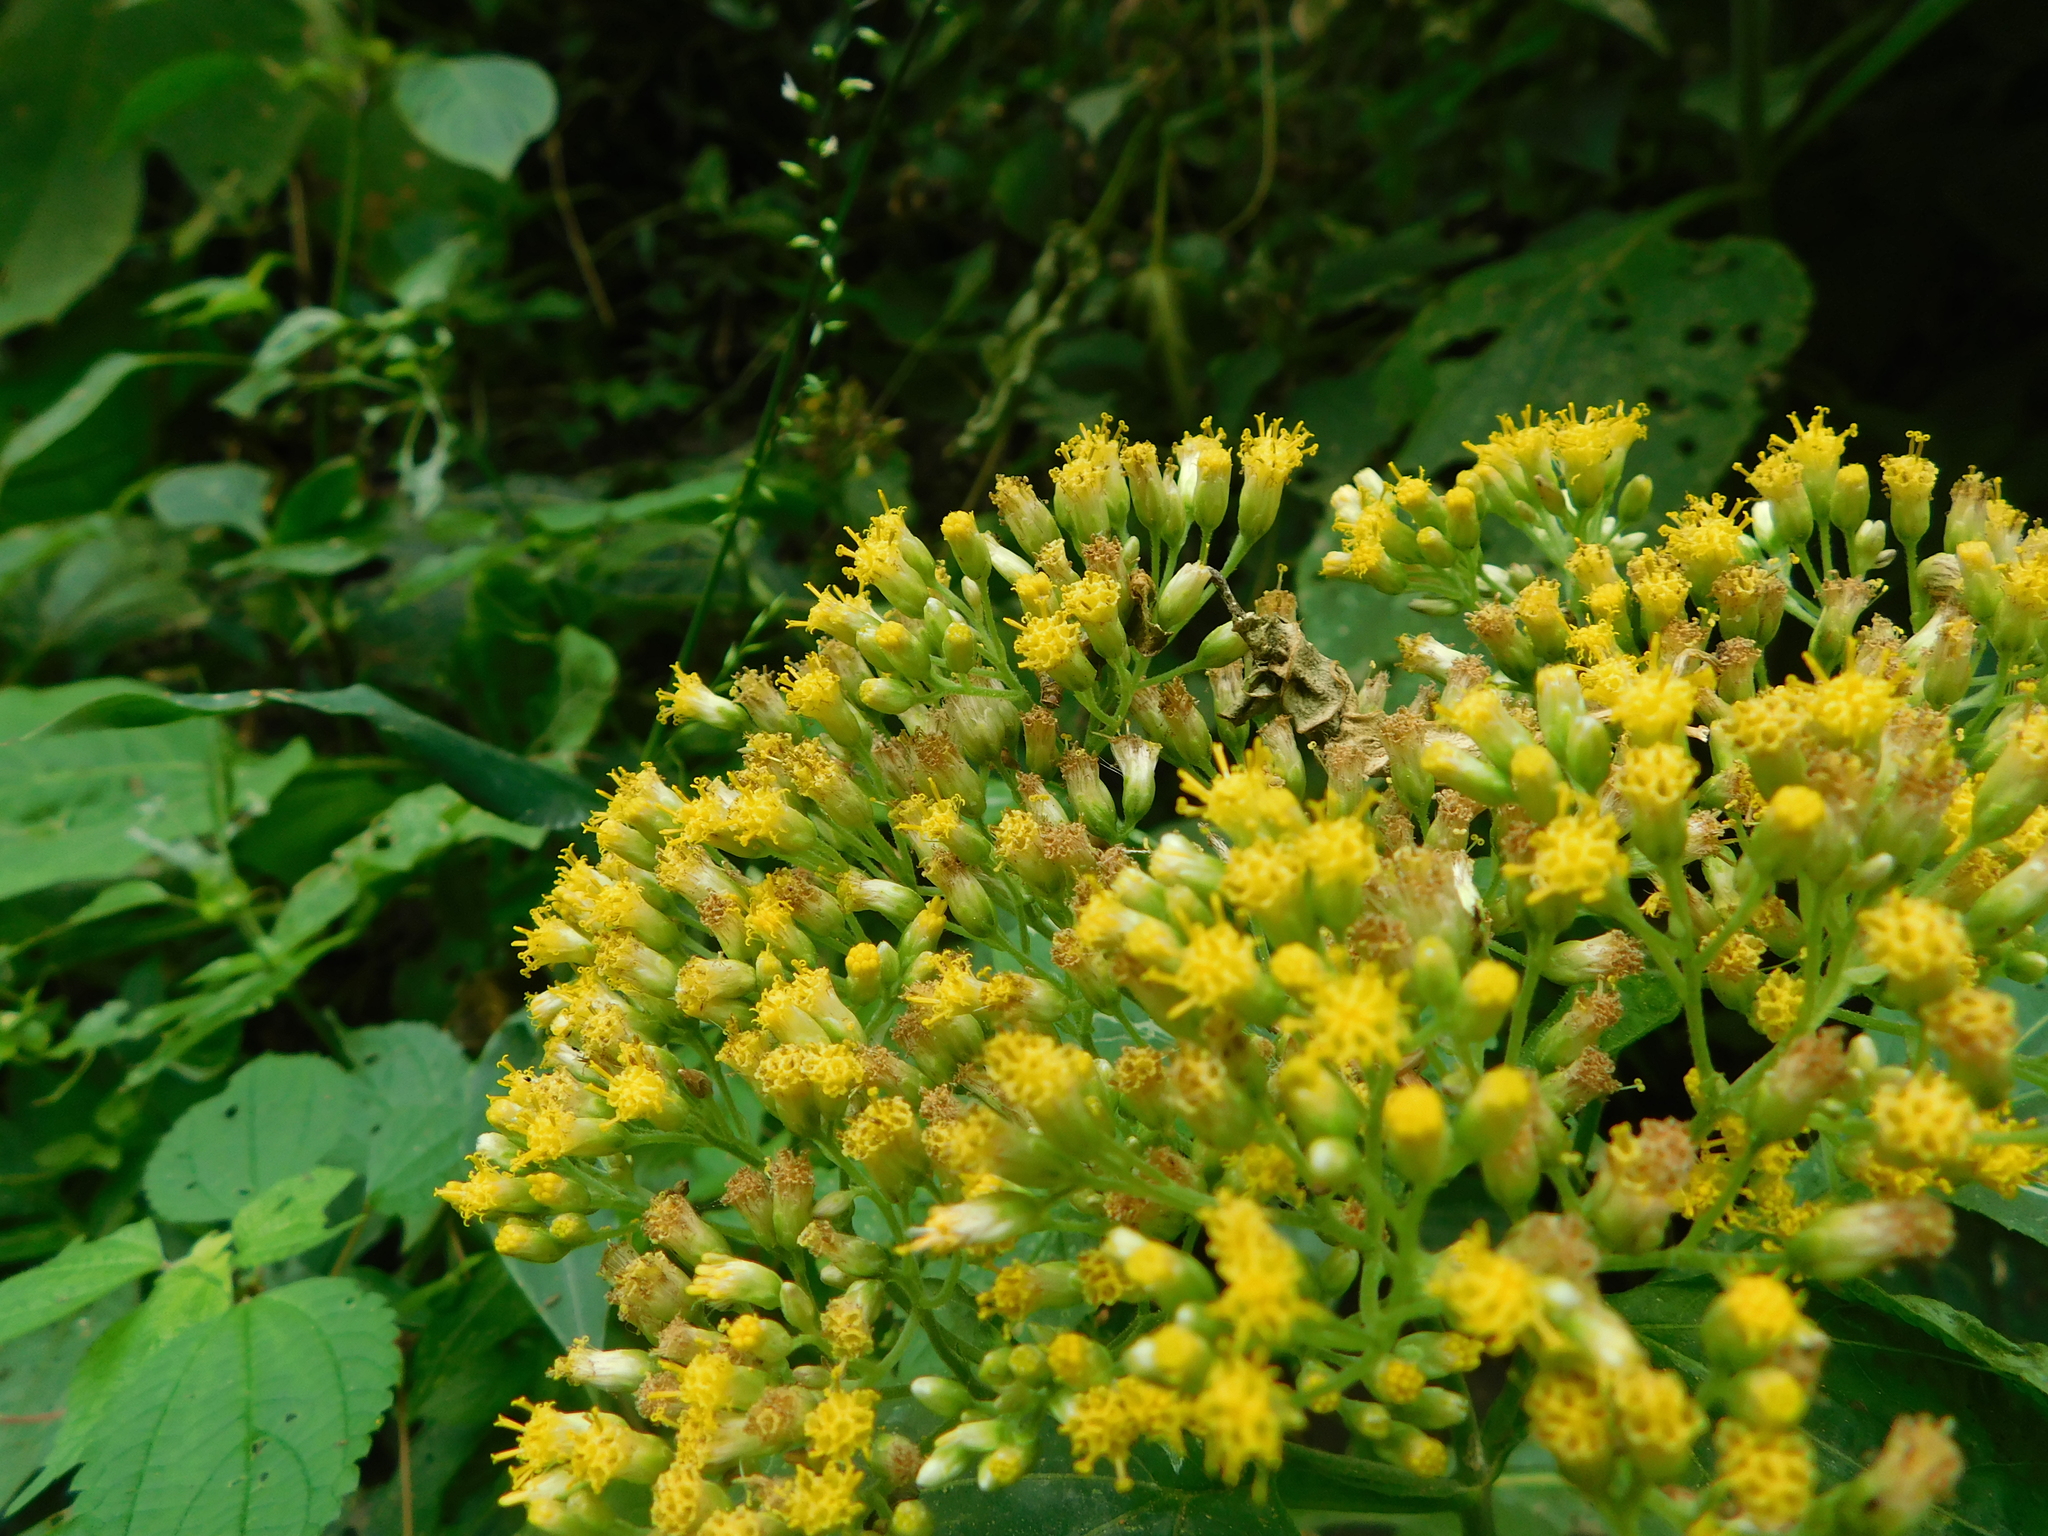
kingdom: Plantae
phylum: Tracheophyta
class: Magnoliopsida
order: Asterales
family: Asteraceae
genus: Schistocarpha
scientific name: Schistocarpha eupatorioides
